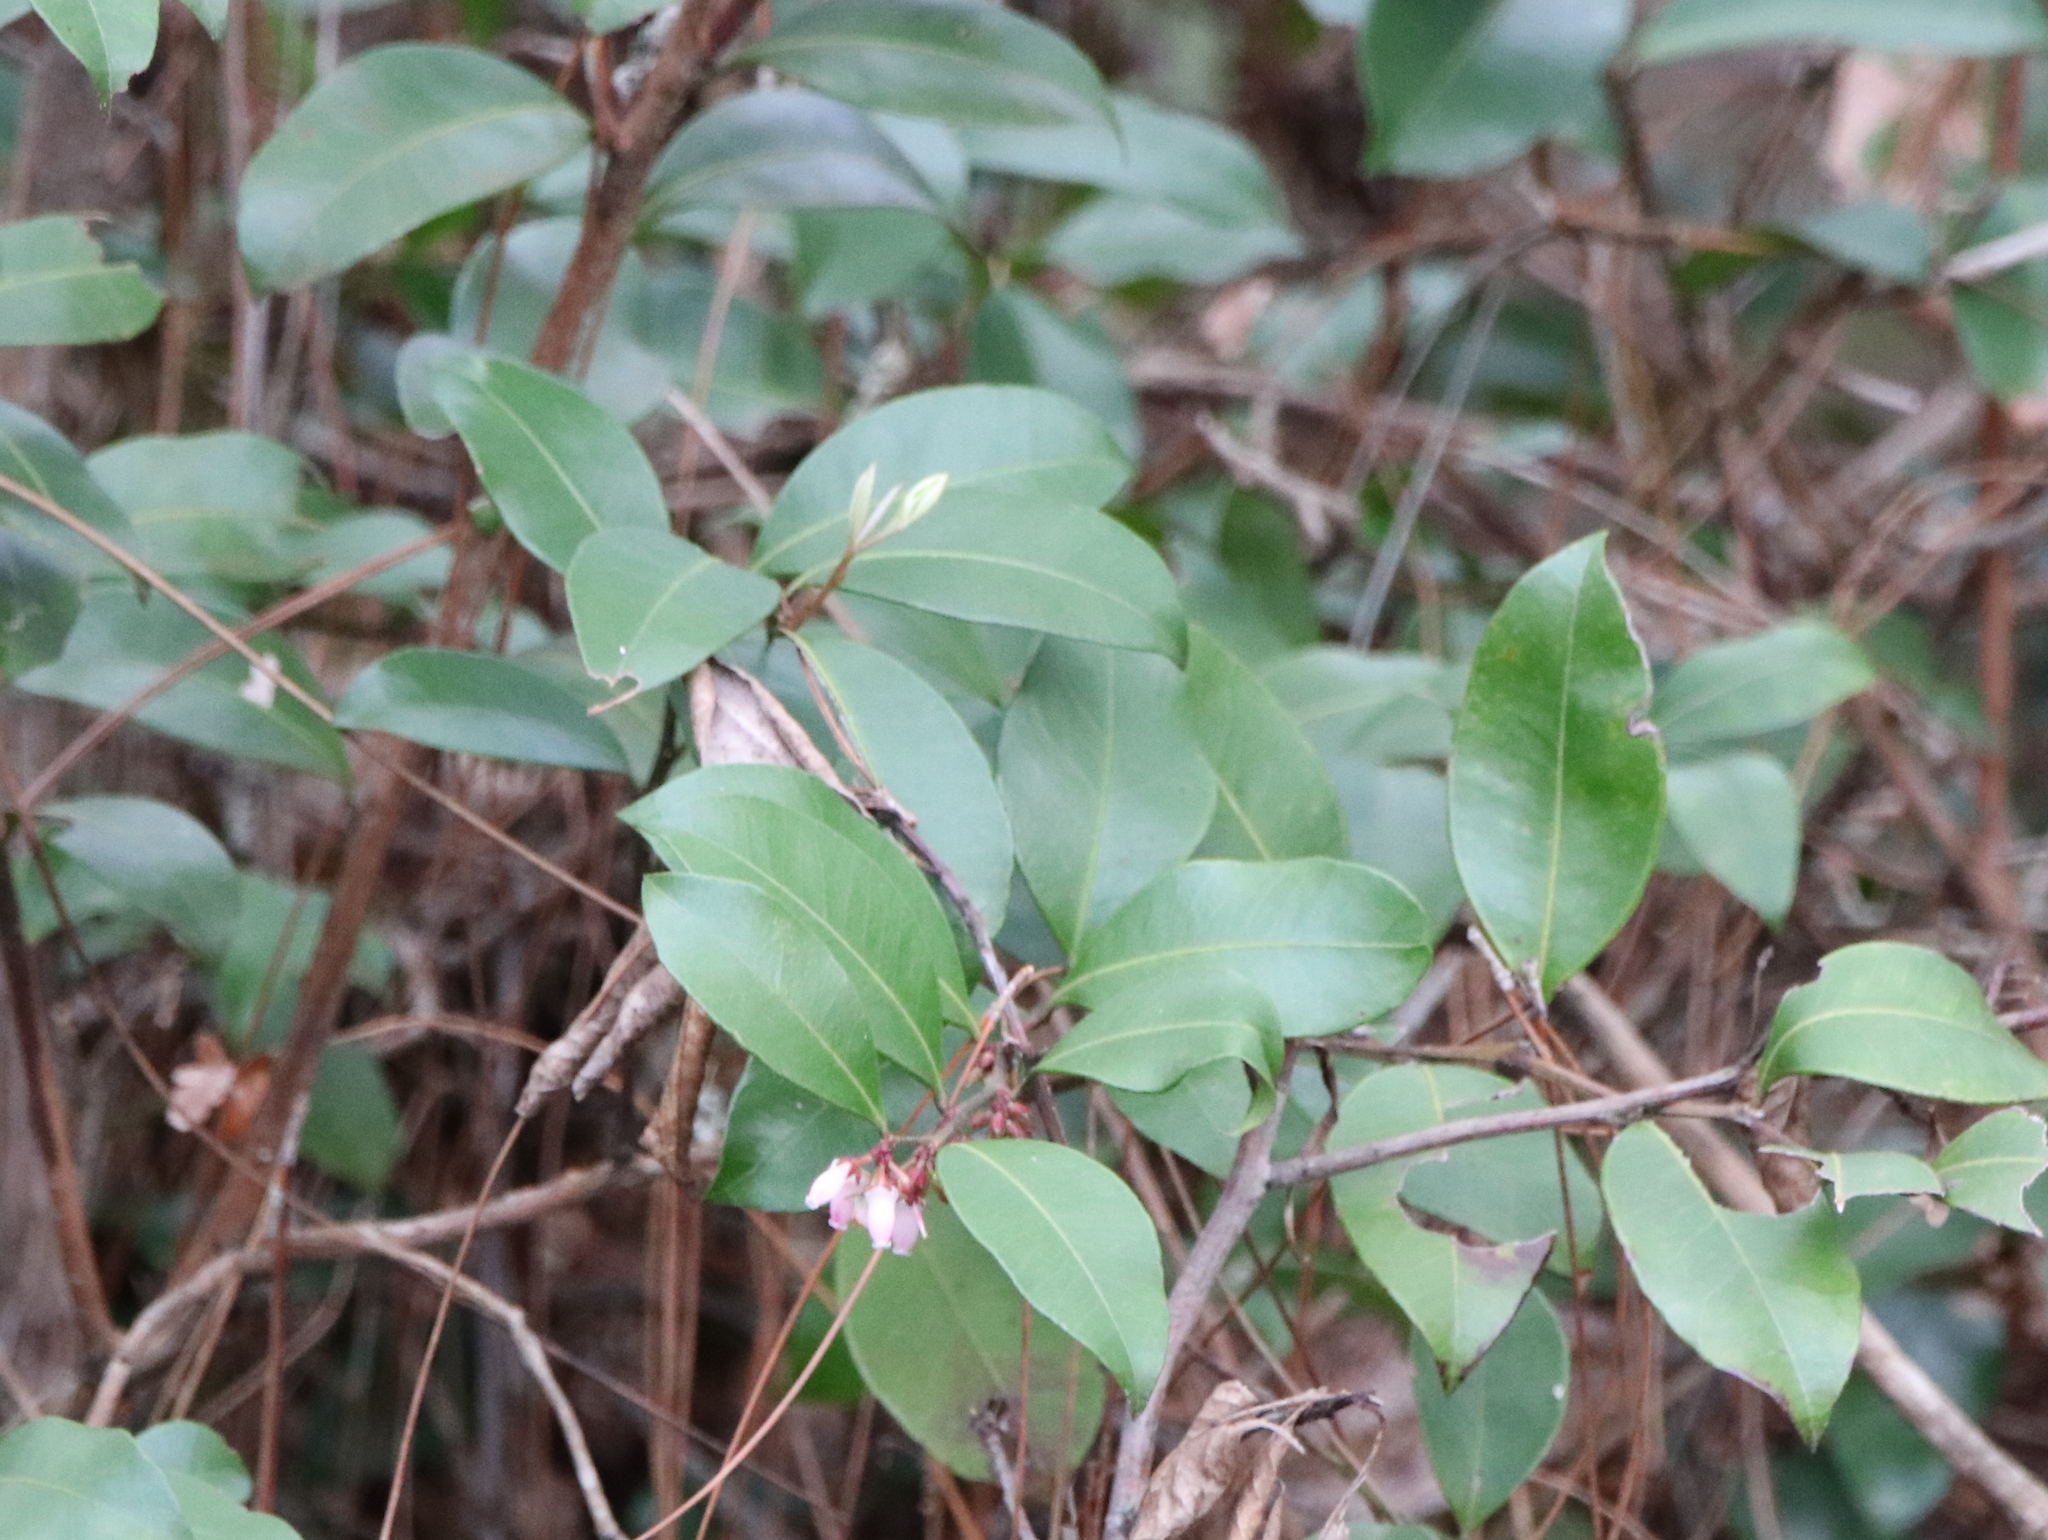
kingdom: Plantae
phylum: Tracheophyta
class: Magnoliopsida
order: Ericales
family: Ericaceae
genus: Lyonia
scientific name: Lyonia lucida
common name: Fetterbush
